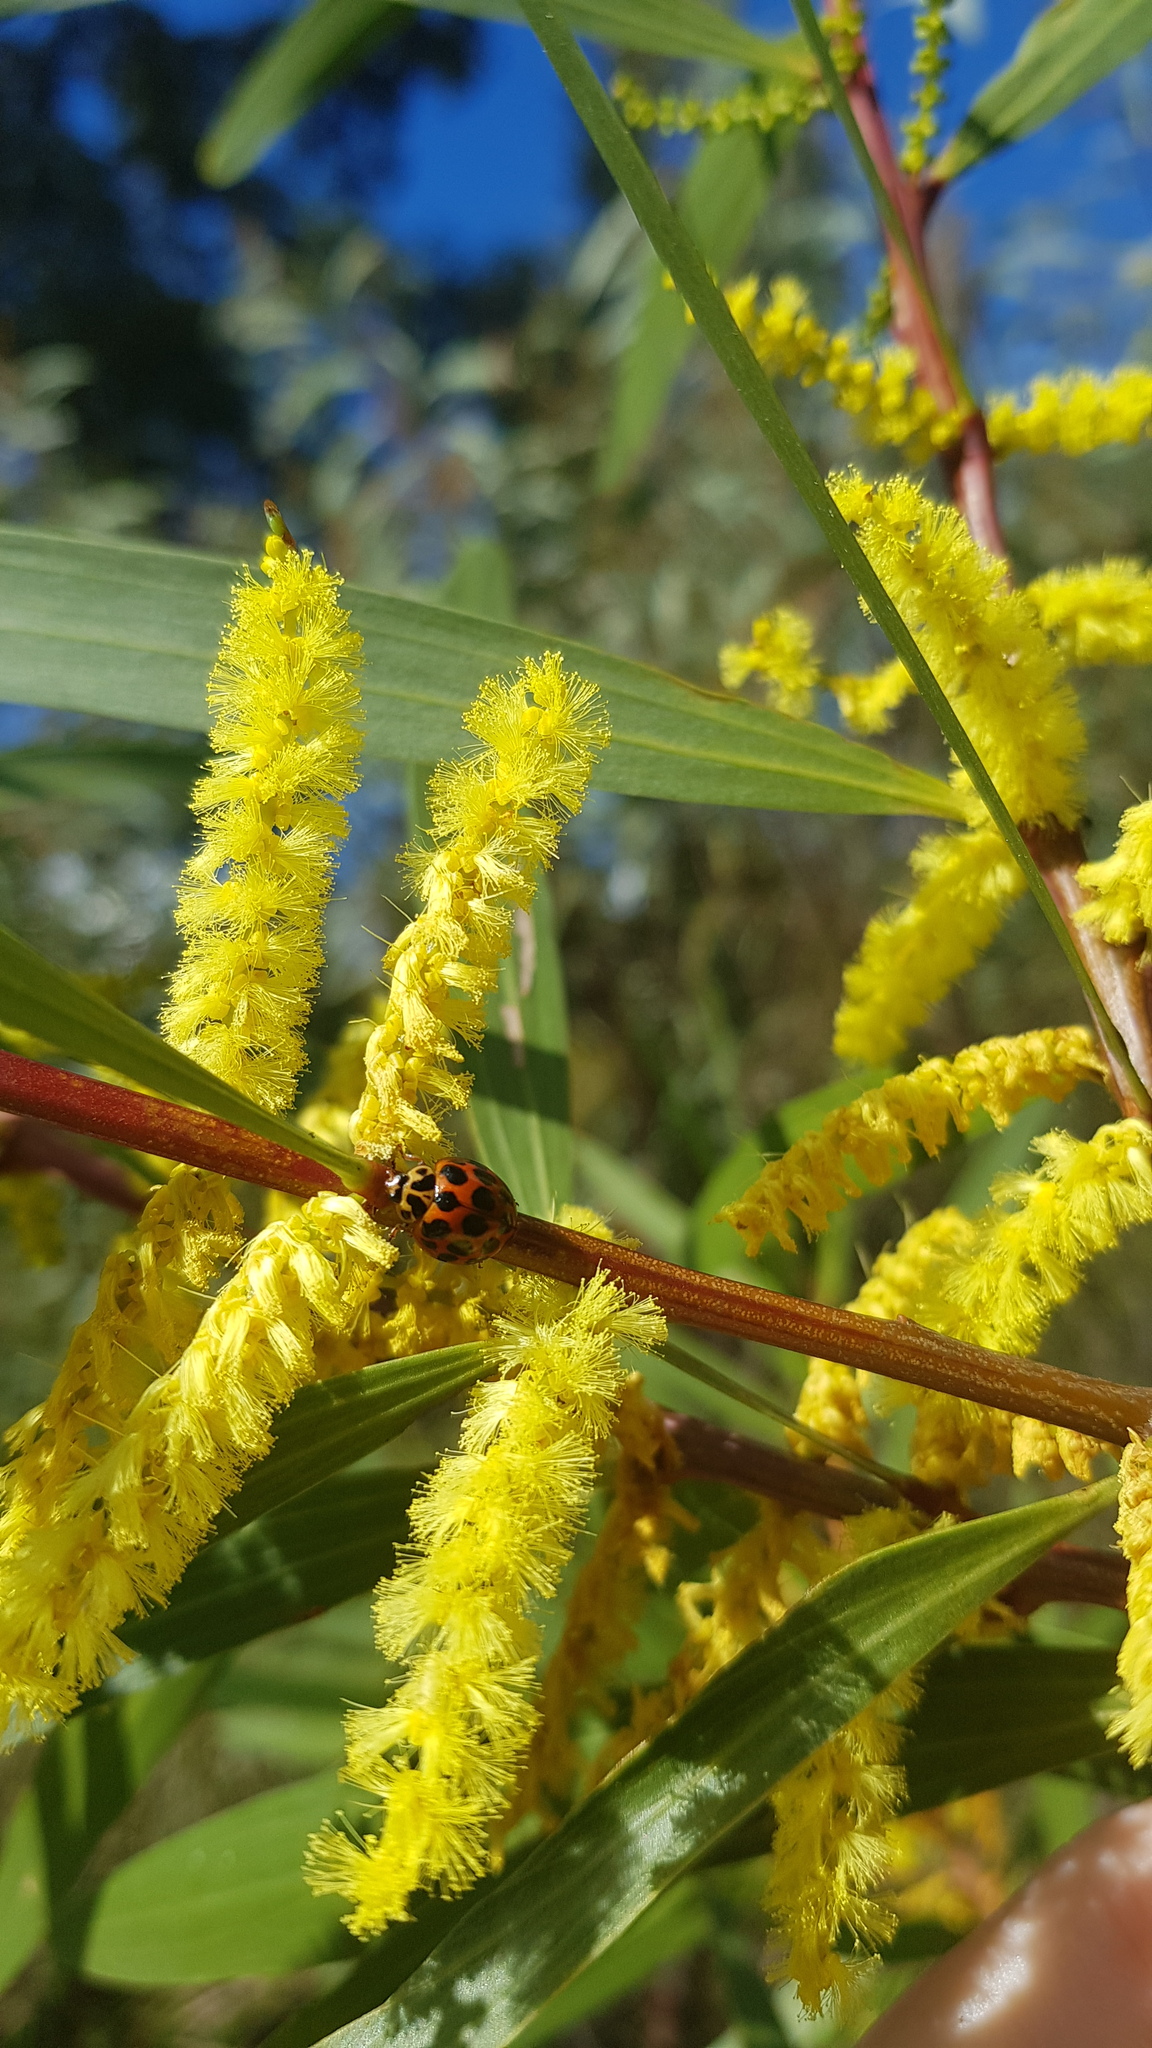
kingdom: Animalia
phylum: Arthropoda
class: Insecta
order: Coleoptera
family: Coccinellidae
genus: Harmonia
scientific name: Harmonia conformis
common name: Common spotted ladybird beetle
